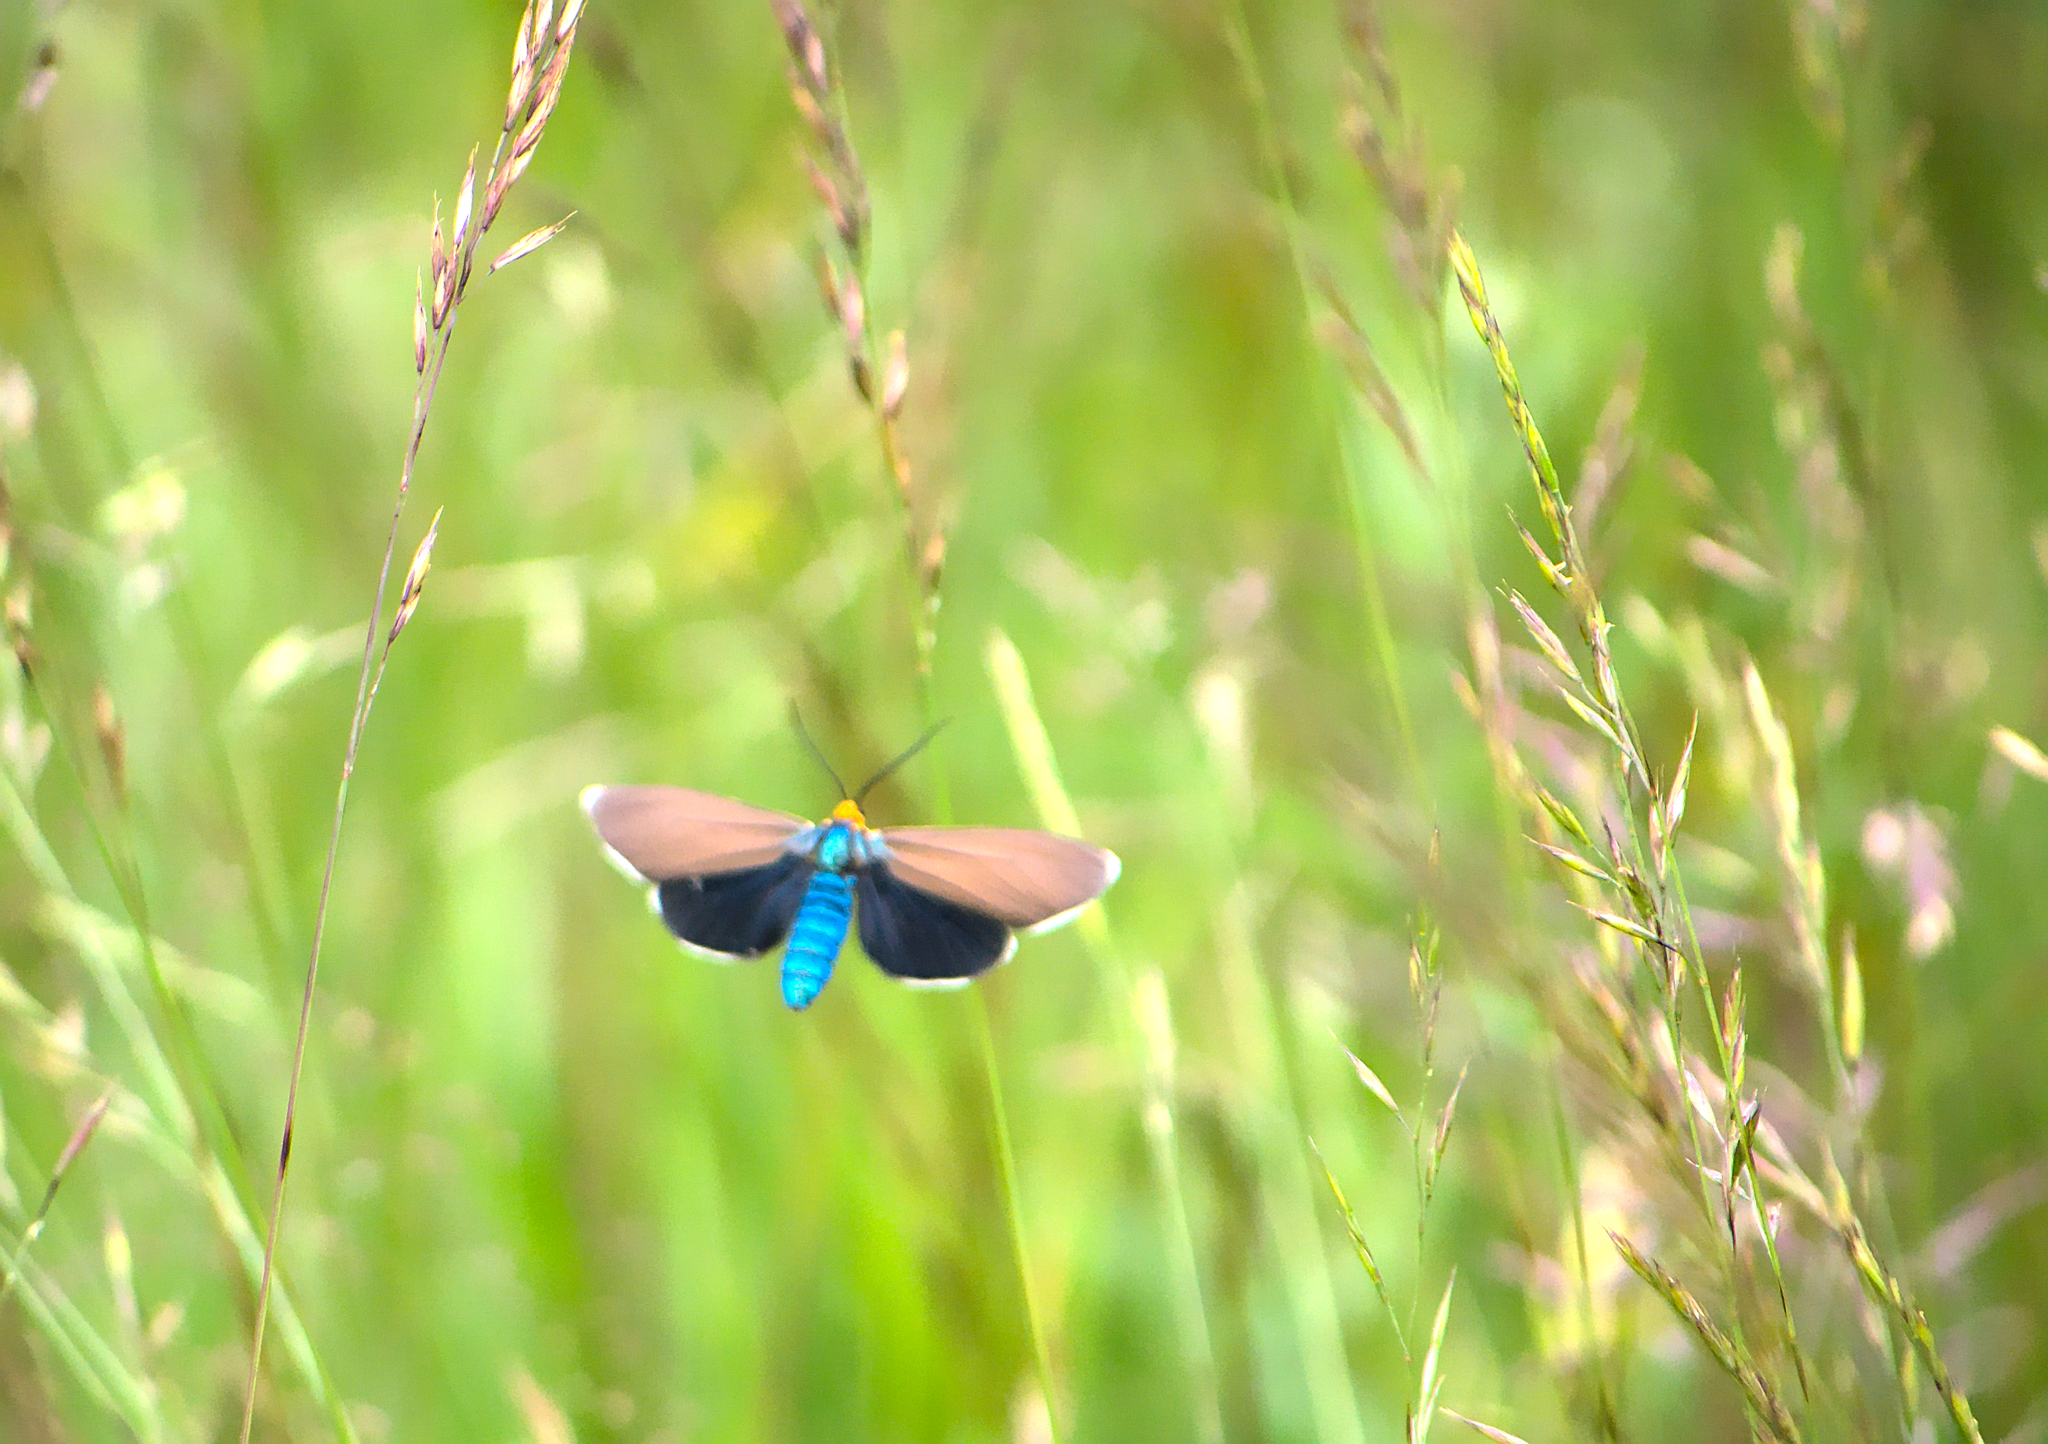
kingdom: Animalia
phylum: Arthropoda
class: Insecta
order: Lepidoptera
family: Erebidae
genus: Ctenucha
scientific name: Ctenucha virginica
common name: Virginia ctenucha moth
